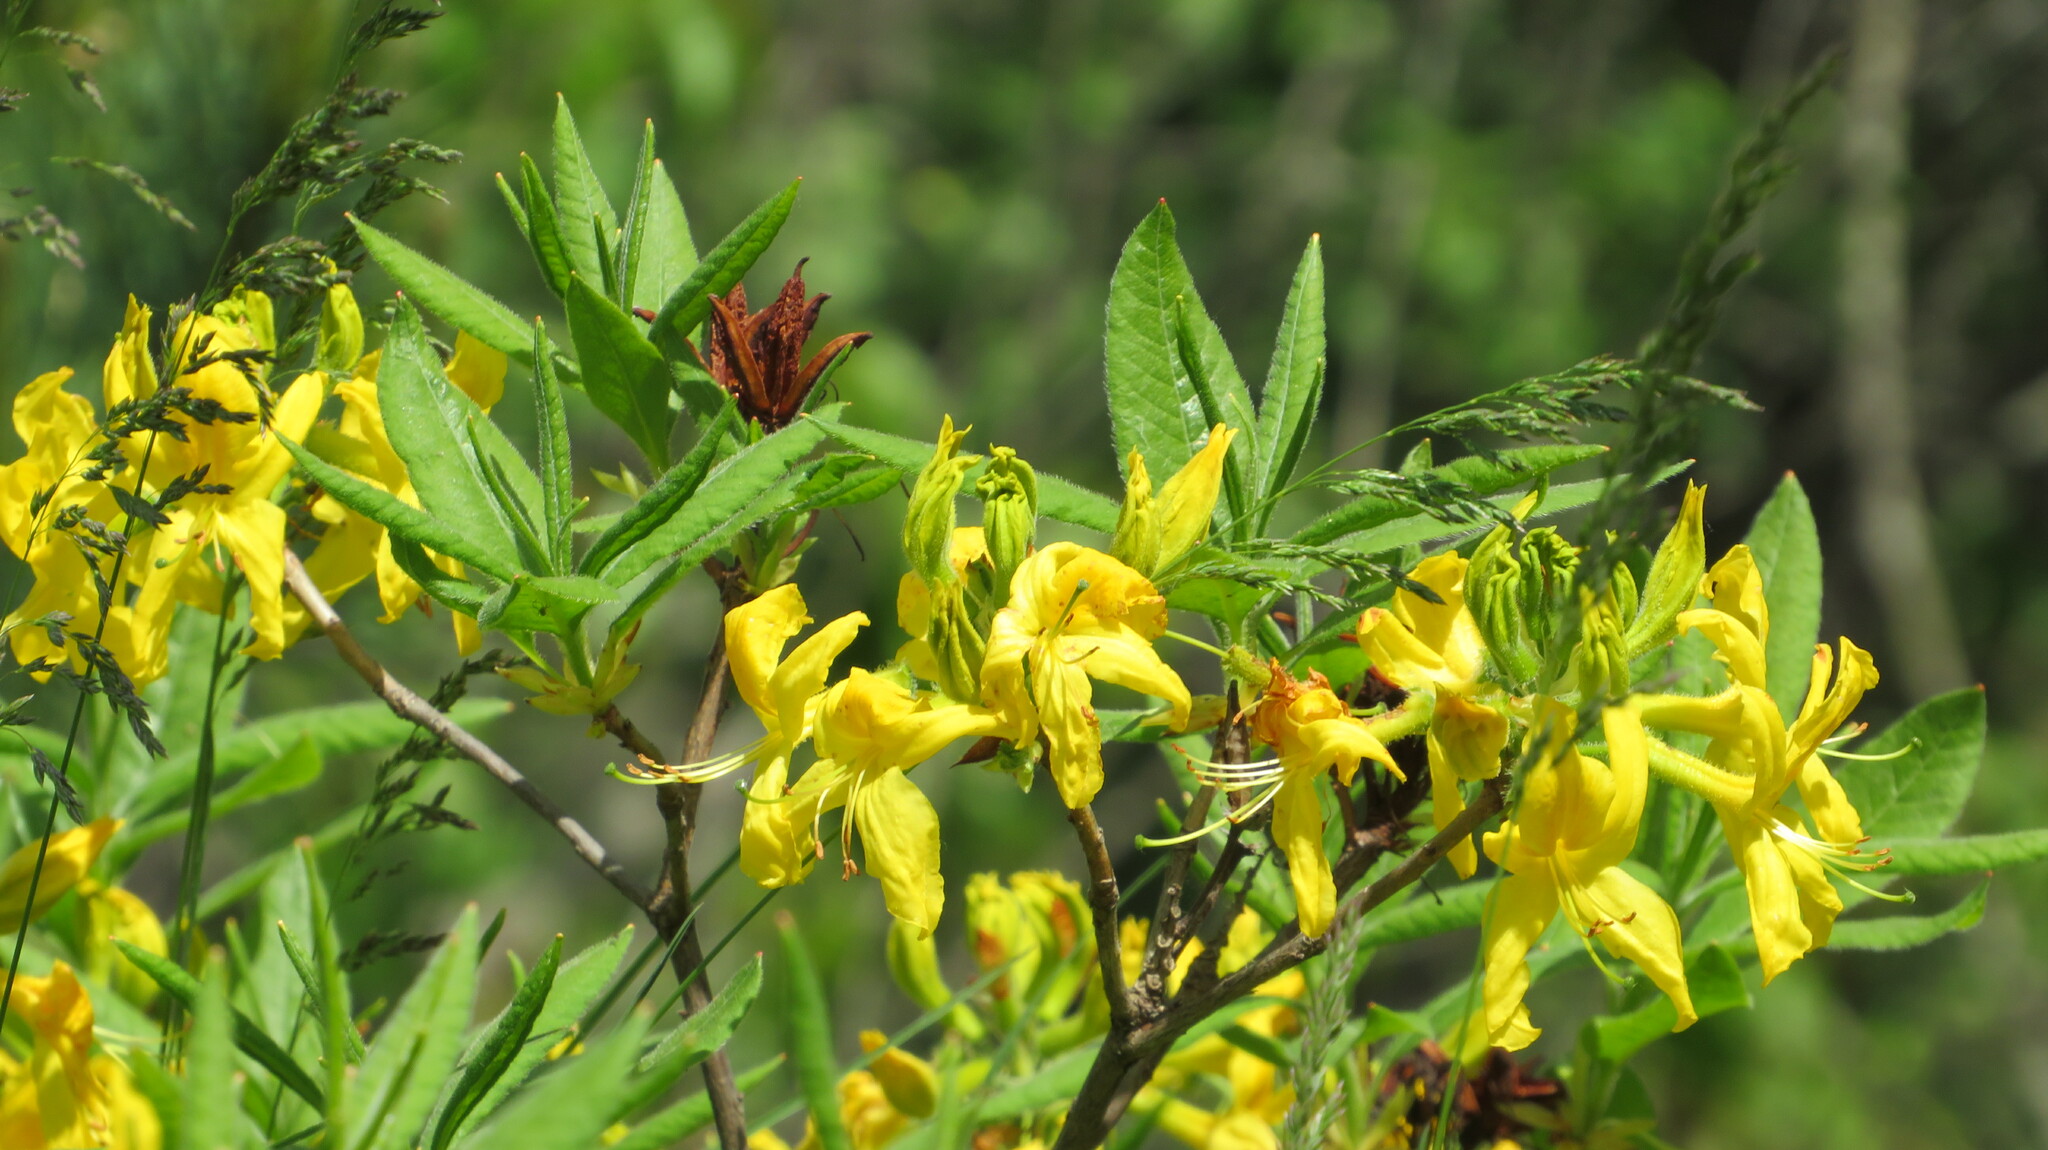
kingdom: Plantae
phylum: Tracheophyta
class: Magnoliopsida
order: Ericales
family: Ericaceae
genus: Rhododendron
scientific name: Rhododendron luteum
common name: Yellow azalea
